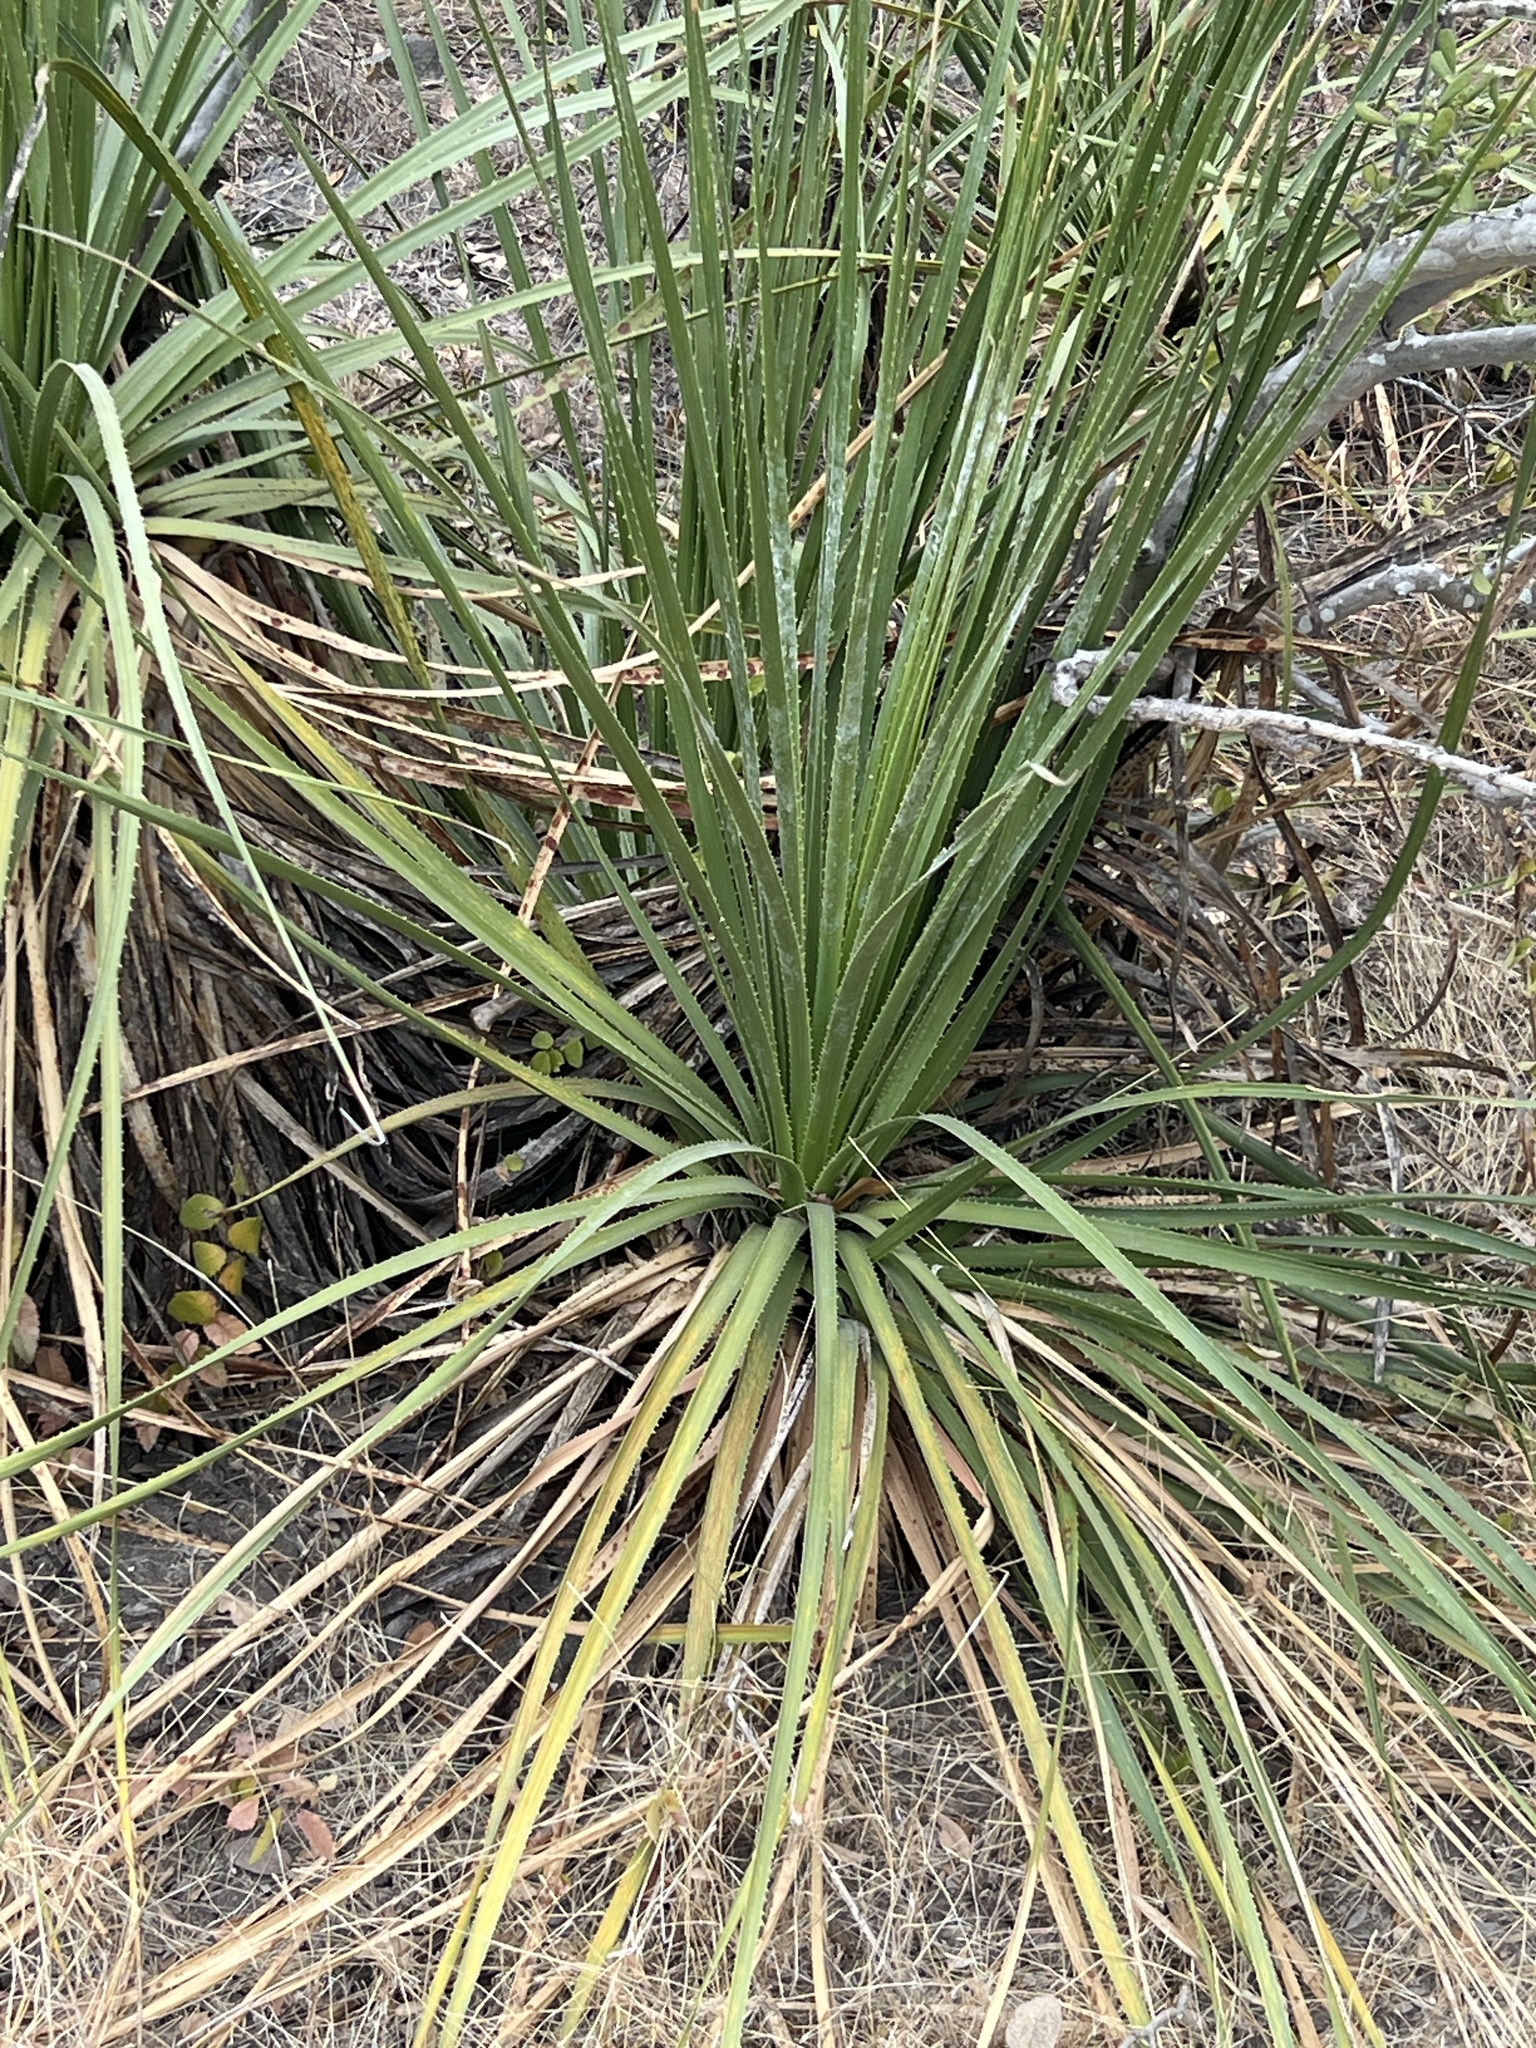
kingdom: Plantae
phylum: Tracheophyta
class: Liliopsida
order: Asparagales
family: Asparagaceae
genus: Dasylirion
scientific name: Dasylirion texanum
